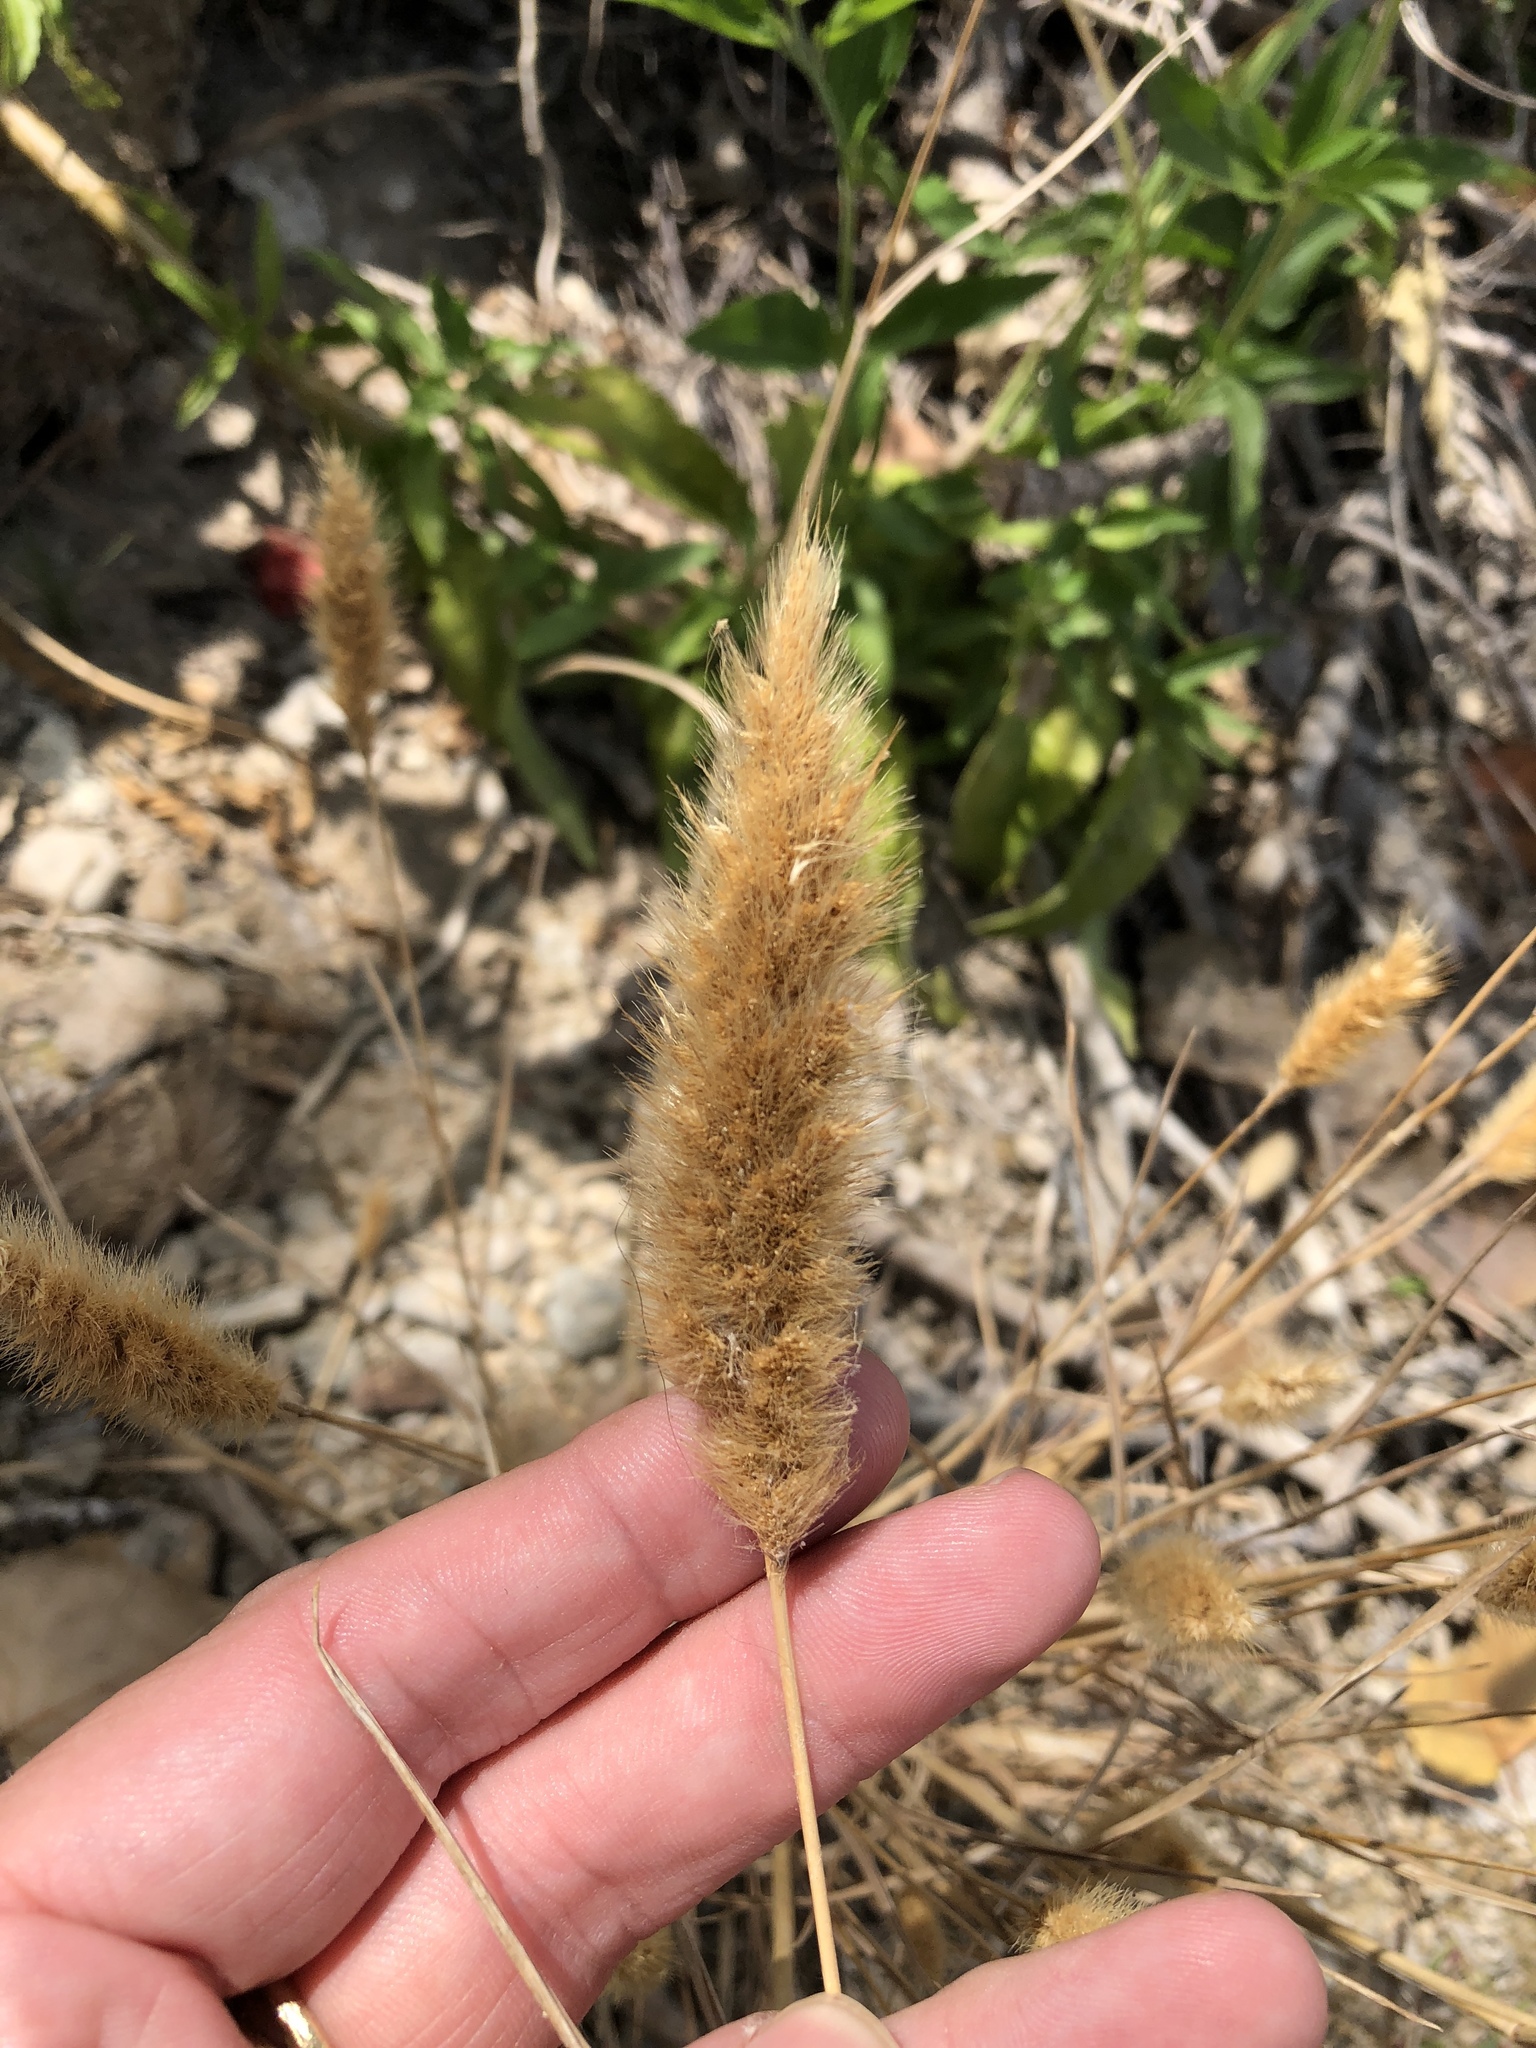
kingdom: Plantae
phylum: Tracheophyta
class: Liliopsida
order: Poales
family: Poaceae
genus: Polypogon
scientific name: Polypogon monspeliensis
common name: Annual rabbitsfoot grass
